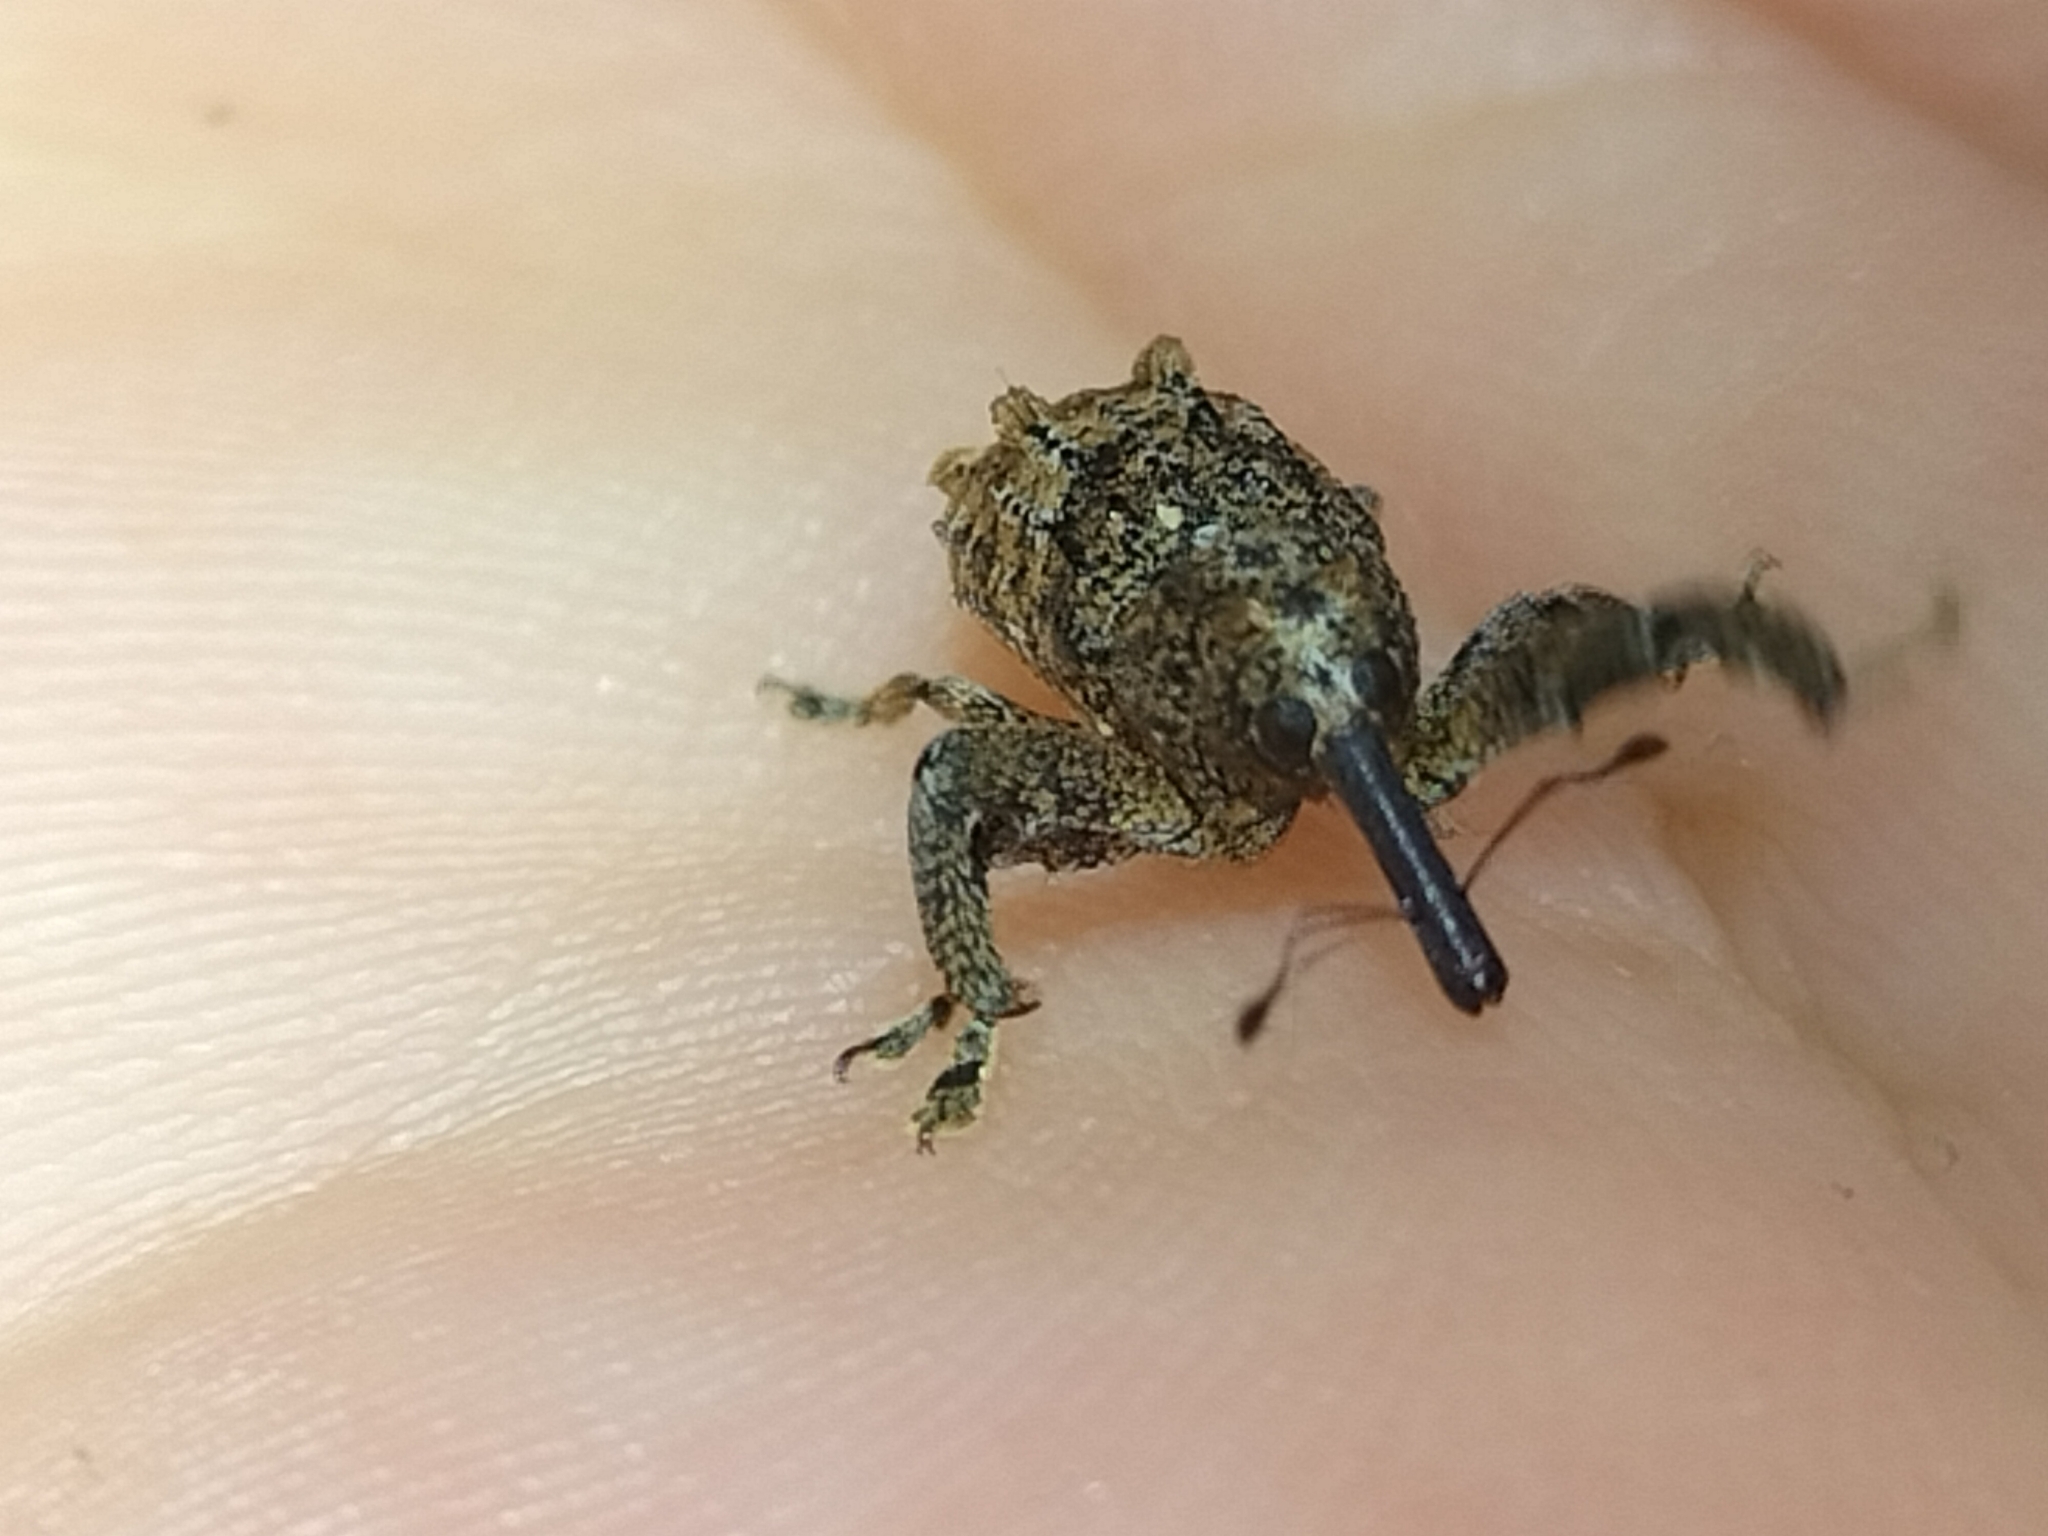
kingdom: Animalia
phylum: Arthropoda
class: Insecta
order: Coleoptera
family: Curculionidae
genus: Orthorhinus
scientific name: Orthorhinus cylindrirostris
